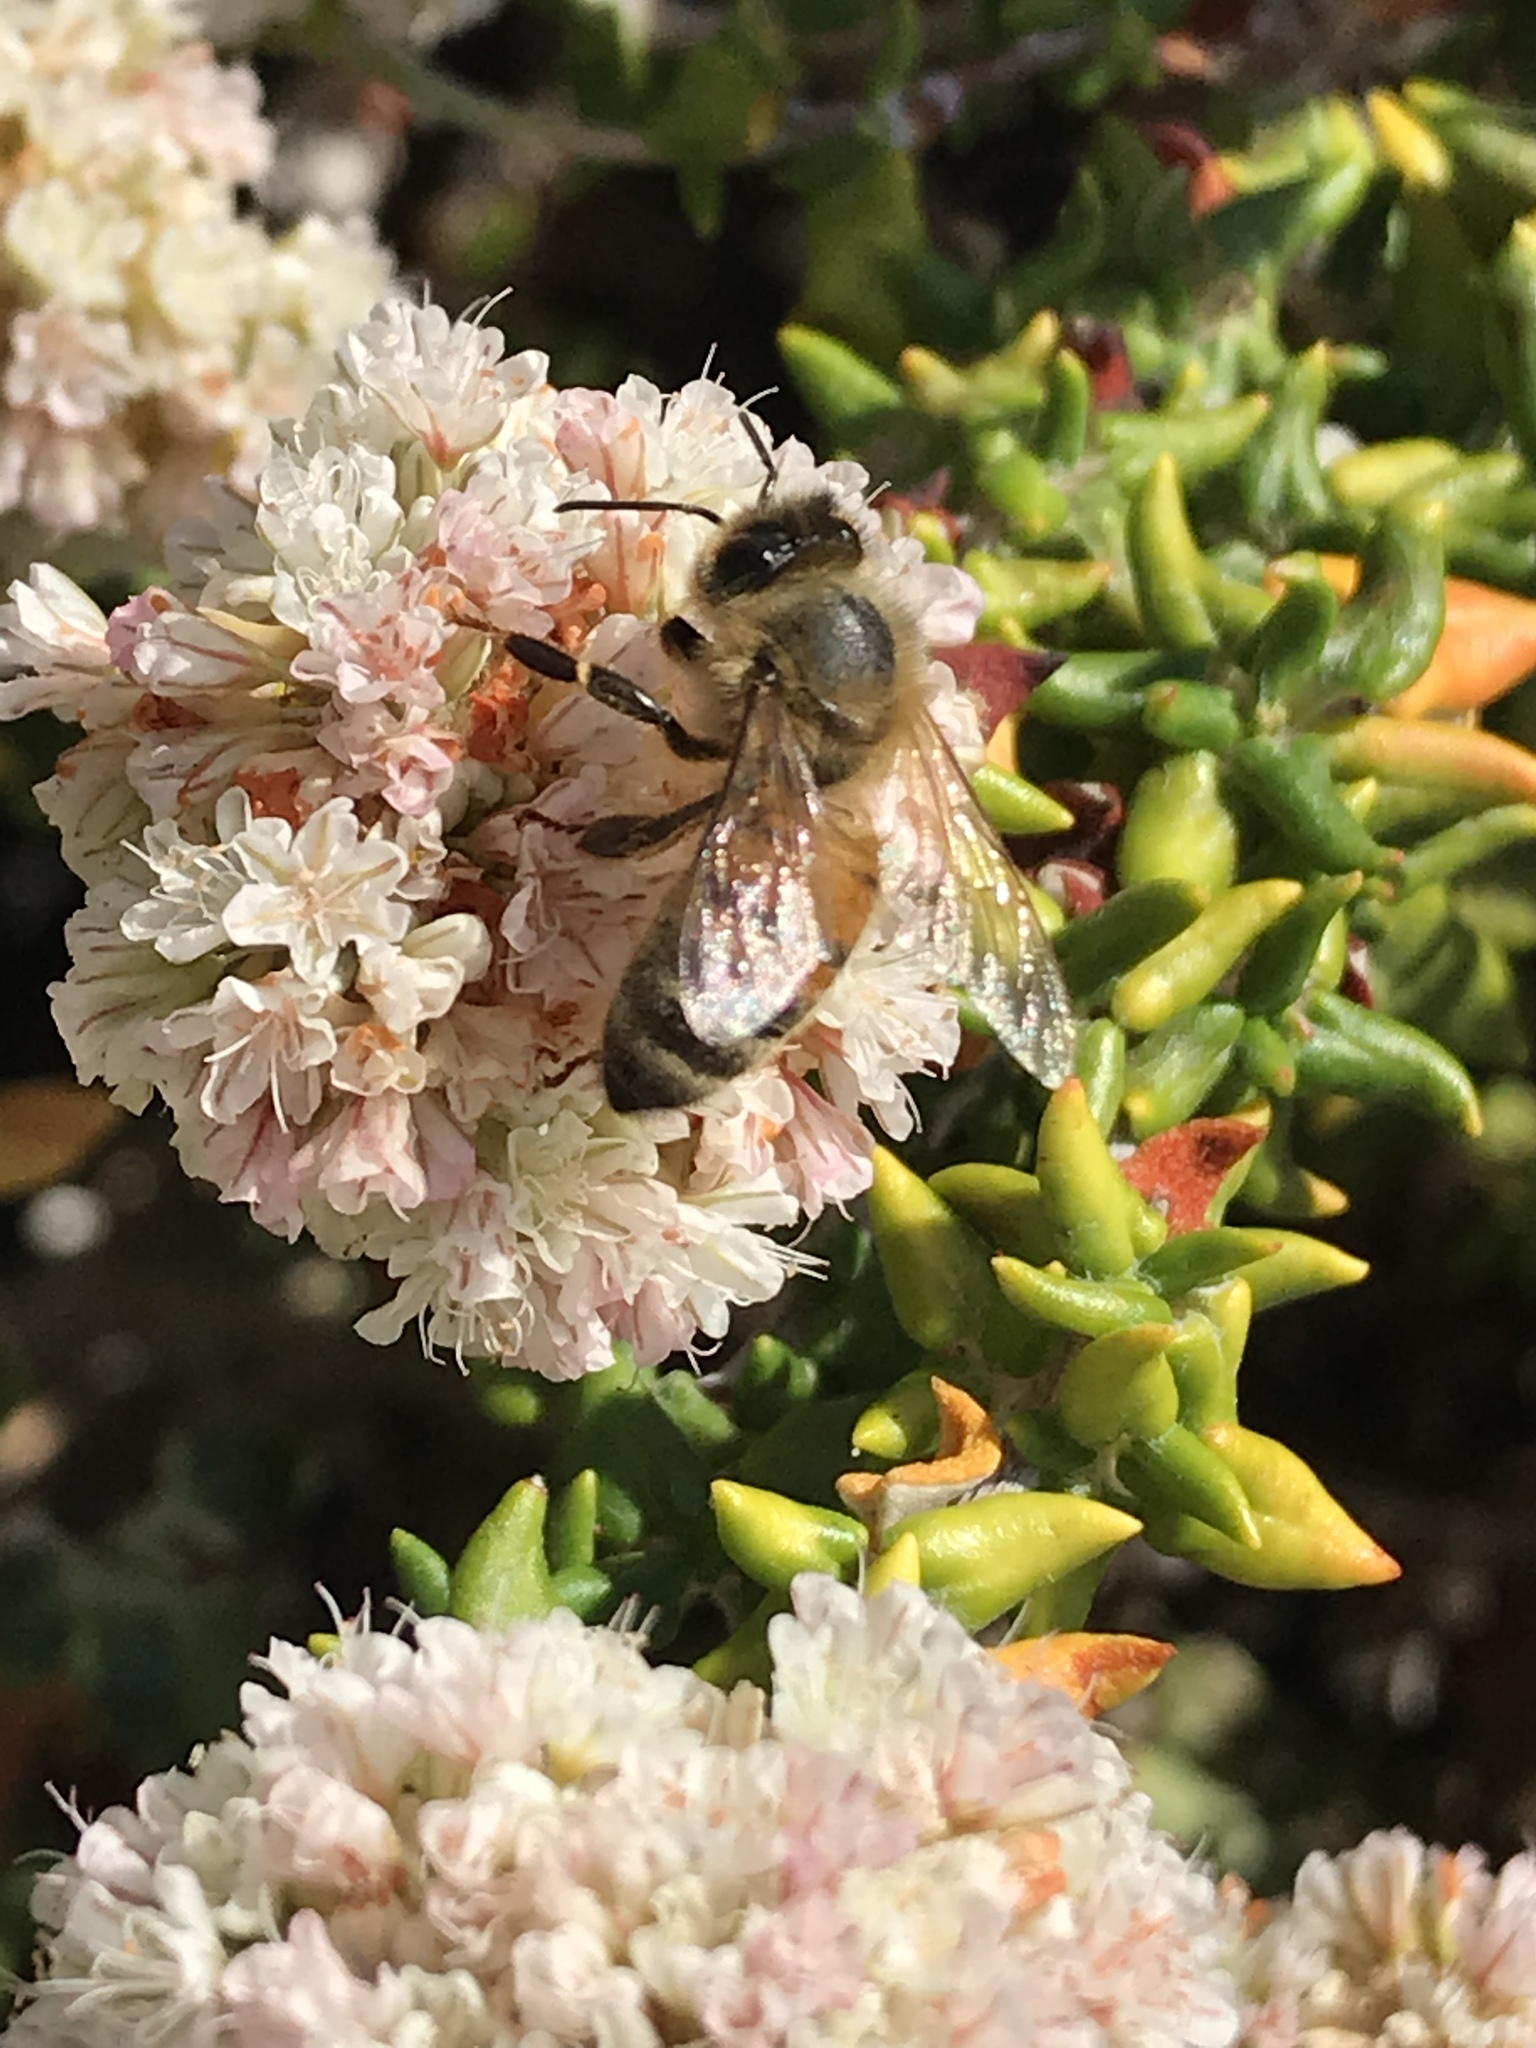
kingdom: Animalia
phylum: Arthropoda
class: Insecta
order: Hymenoptera
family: Apidae
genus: Apis
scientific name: Apis mellifera
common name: Honey bee
